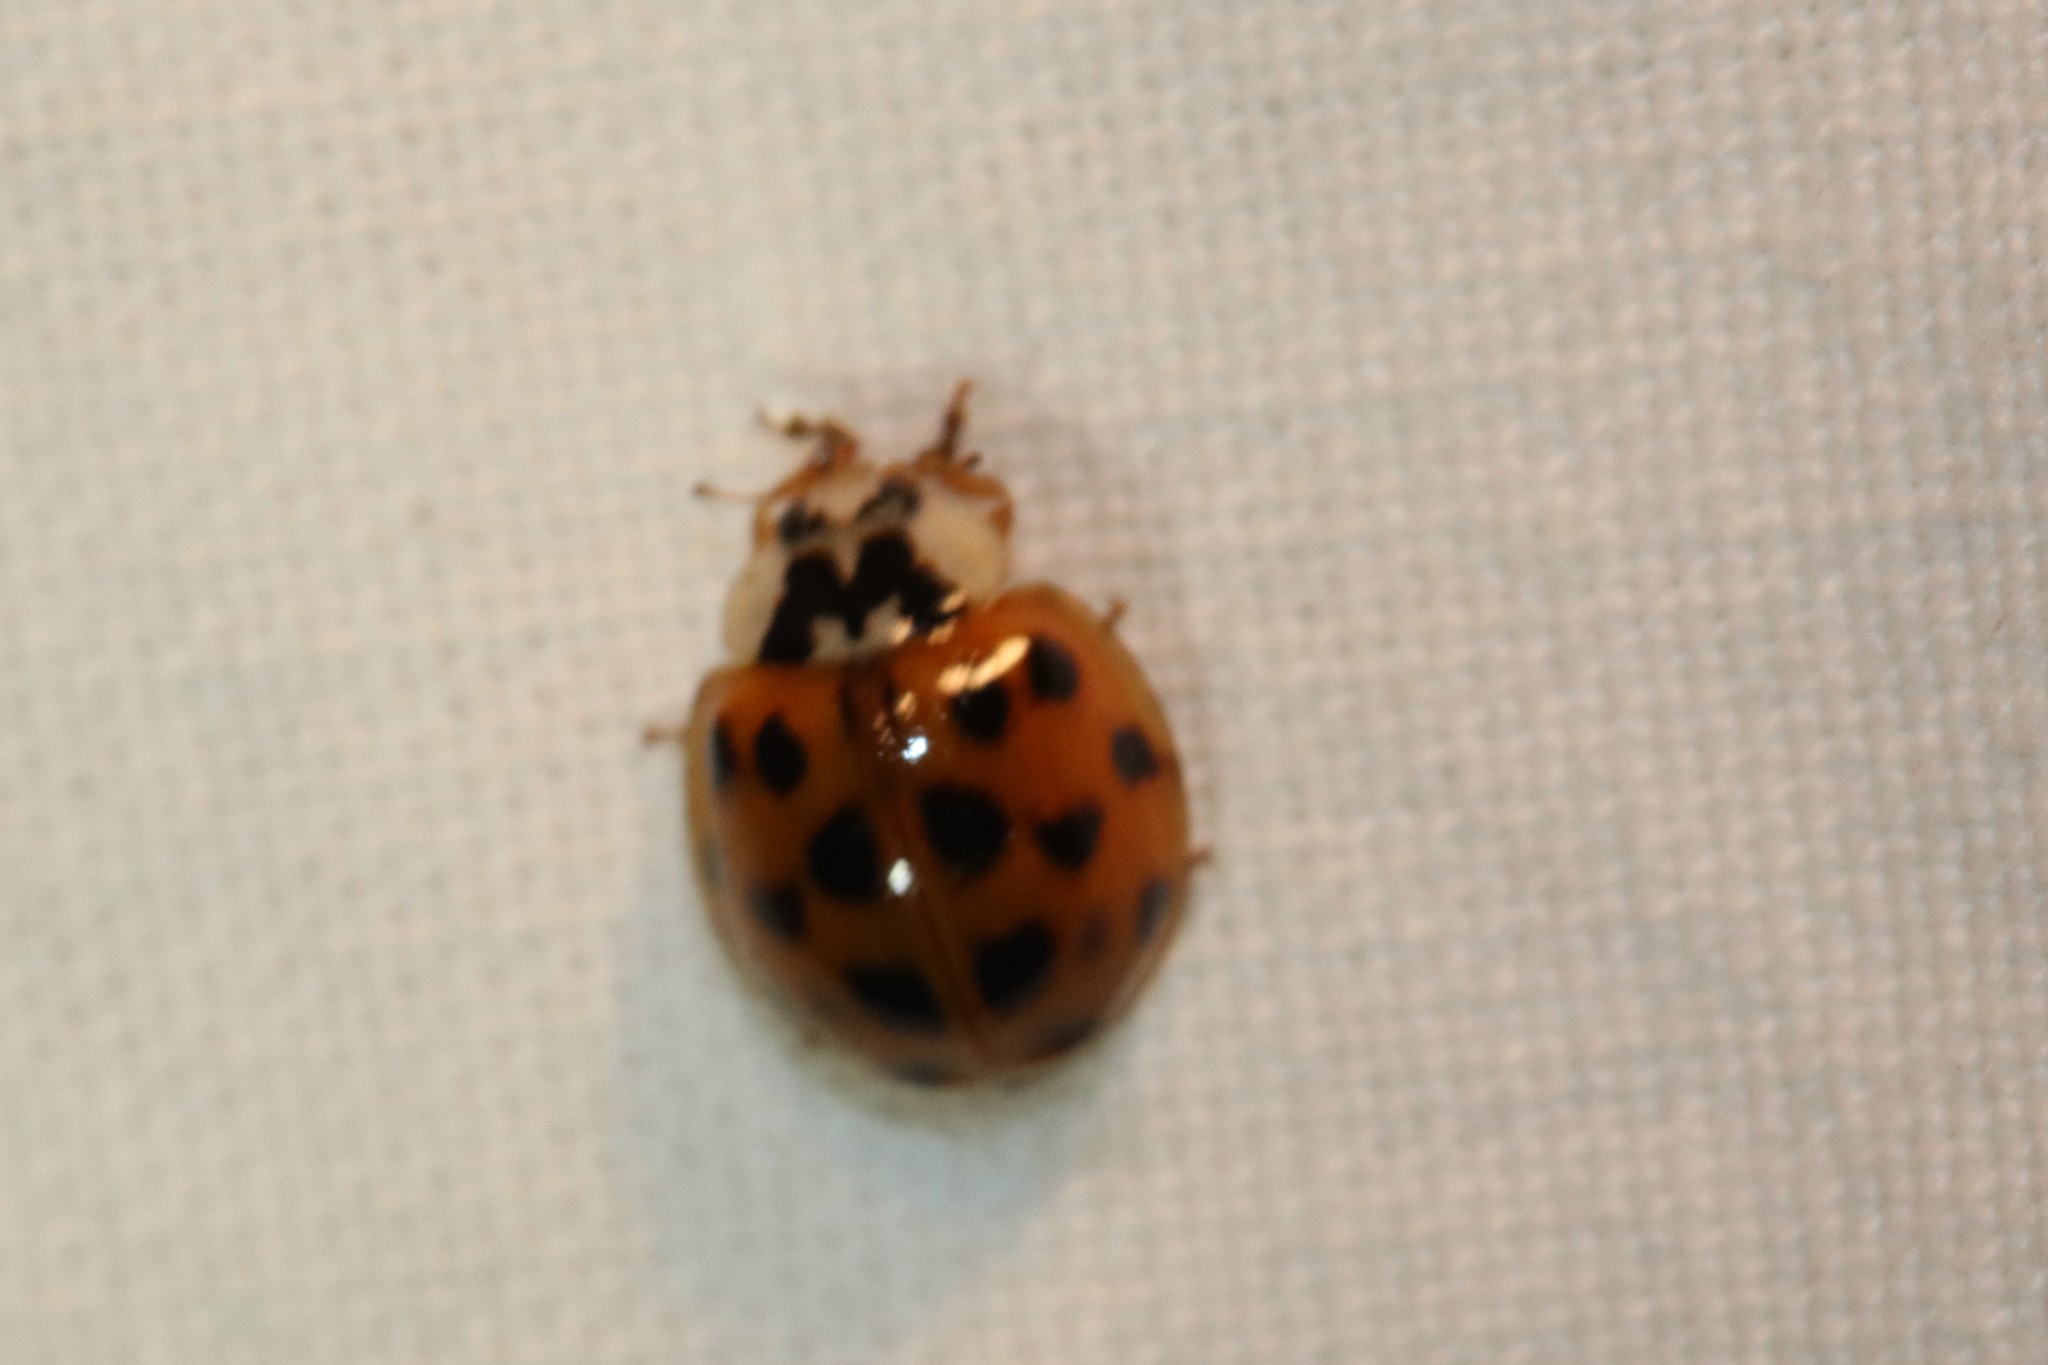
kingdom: Animalia
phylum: Arthropoda
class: Insecta
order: Coleoptera
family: Coccinellidae
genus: Harmonia
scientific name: Harmonia axyridis
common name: Harlequin ladybird
